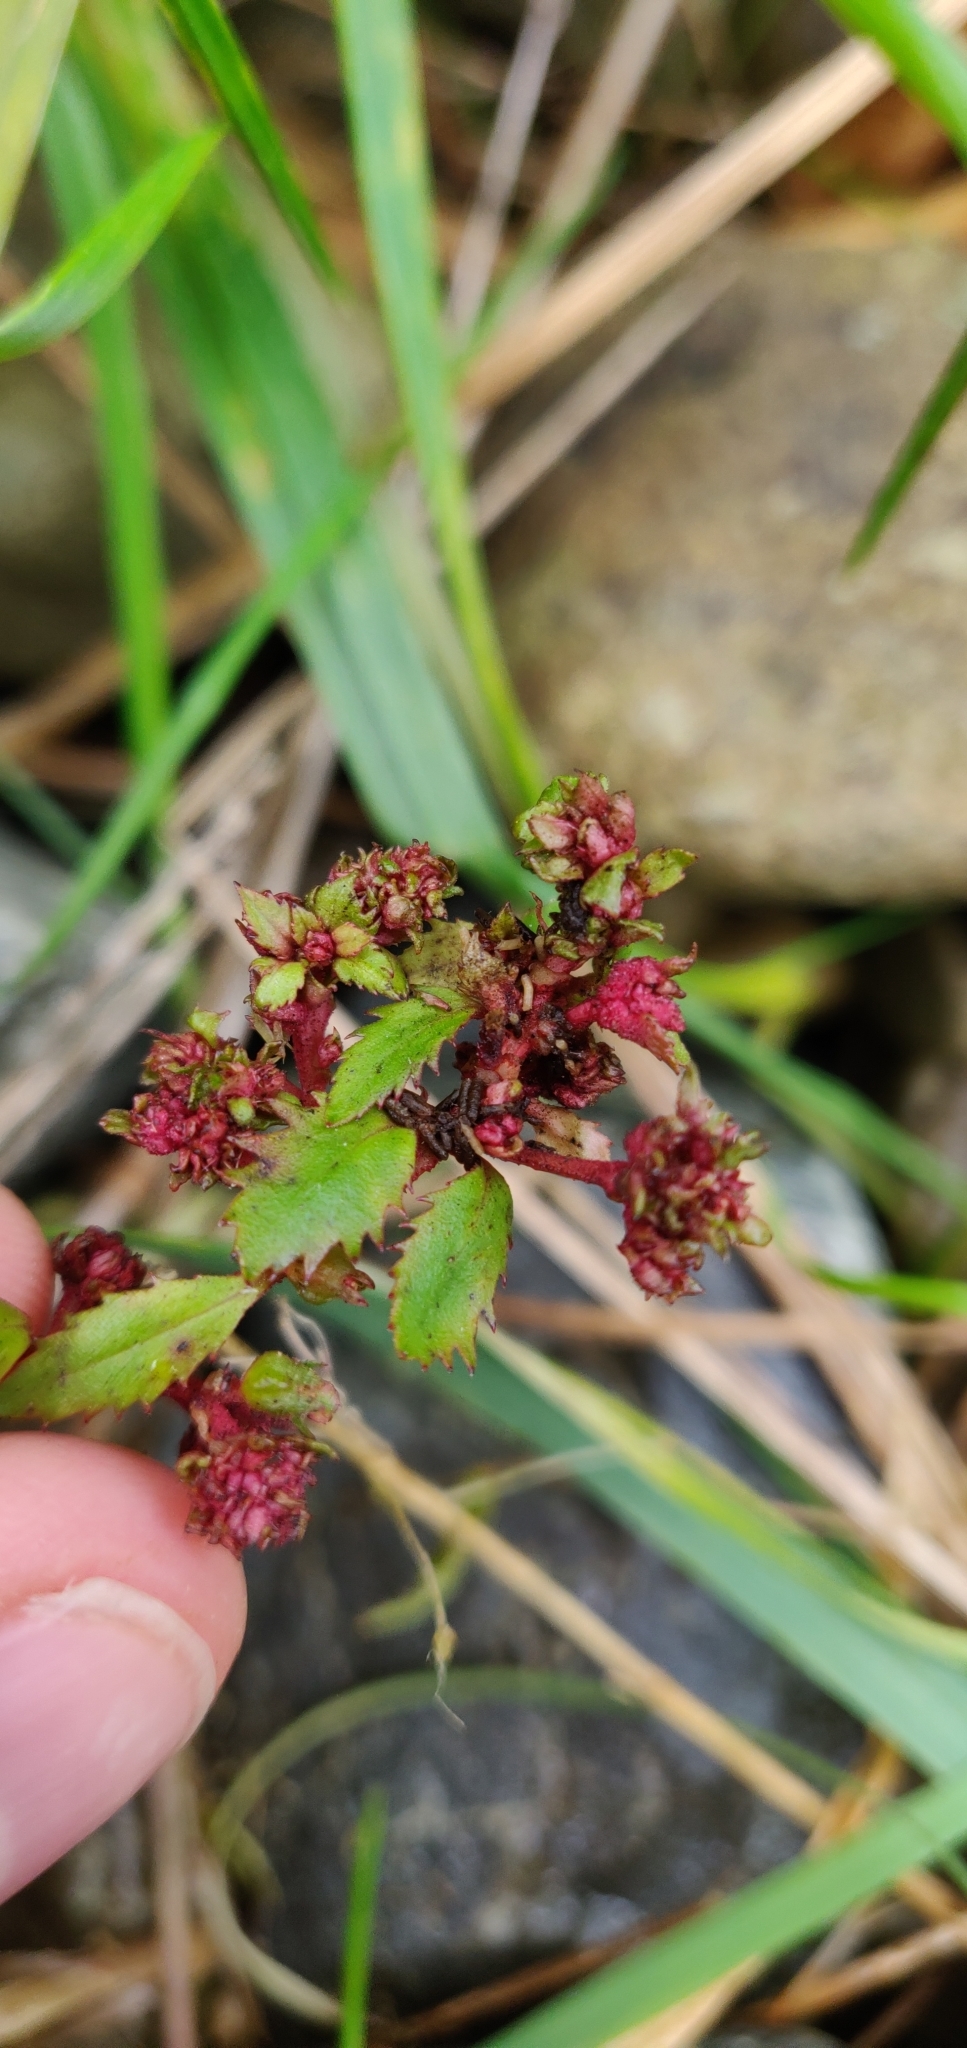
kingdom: Plantae
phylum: Tracheophyta
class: Magnoliopsida
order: Saxifragales
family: Haloragaceae
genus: Haloragis
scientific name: Haloragis erecta
